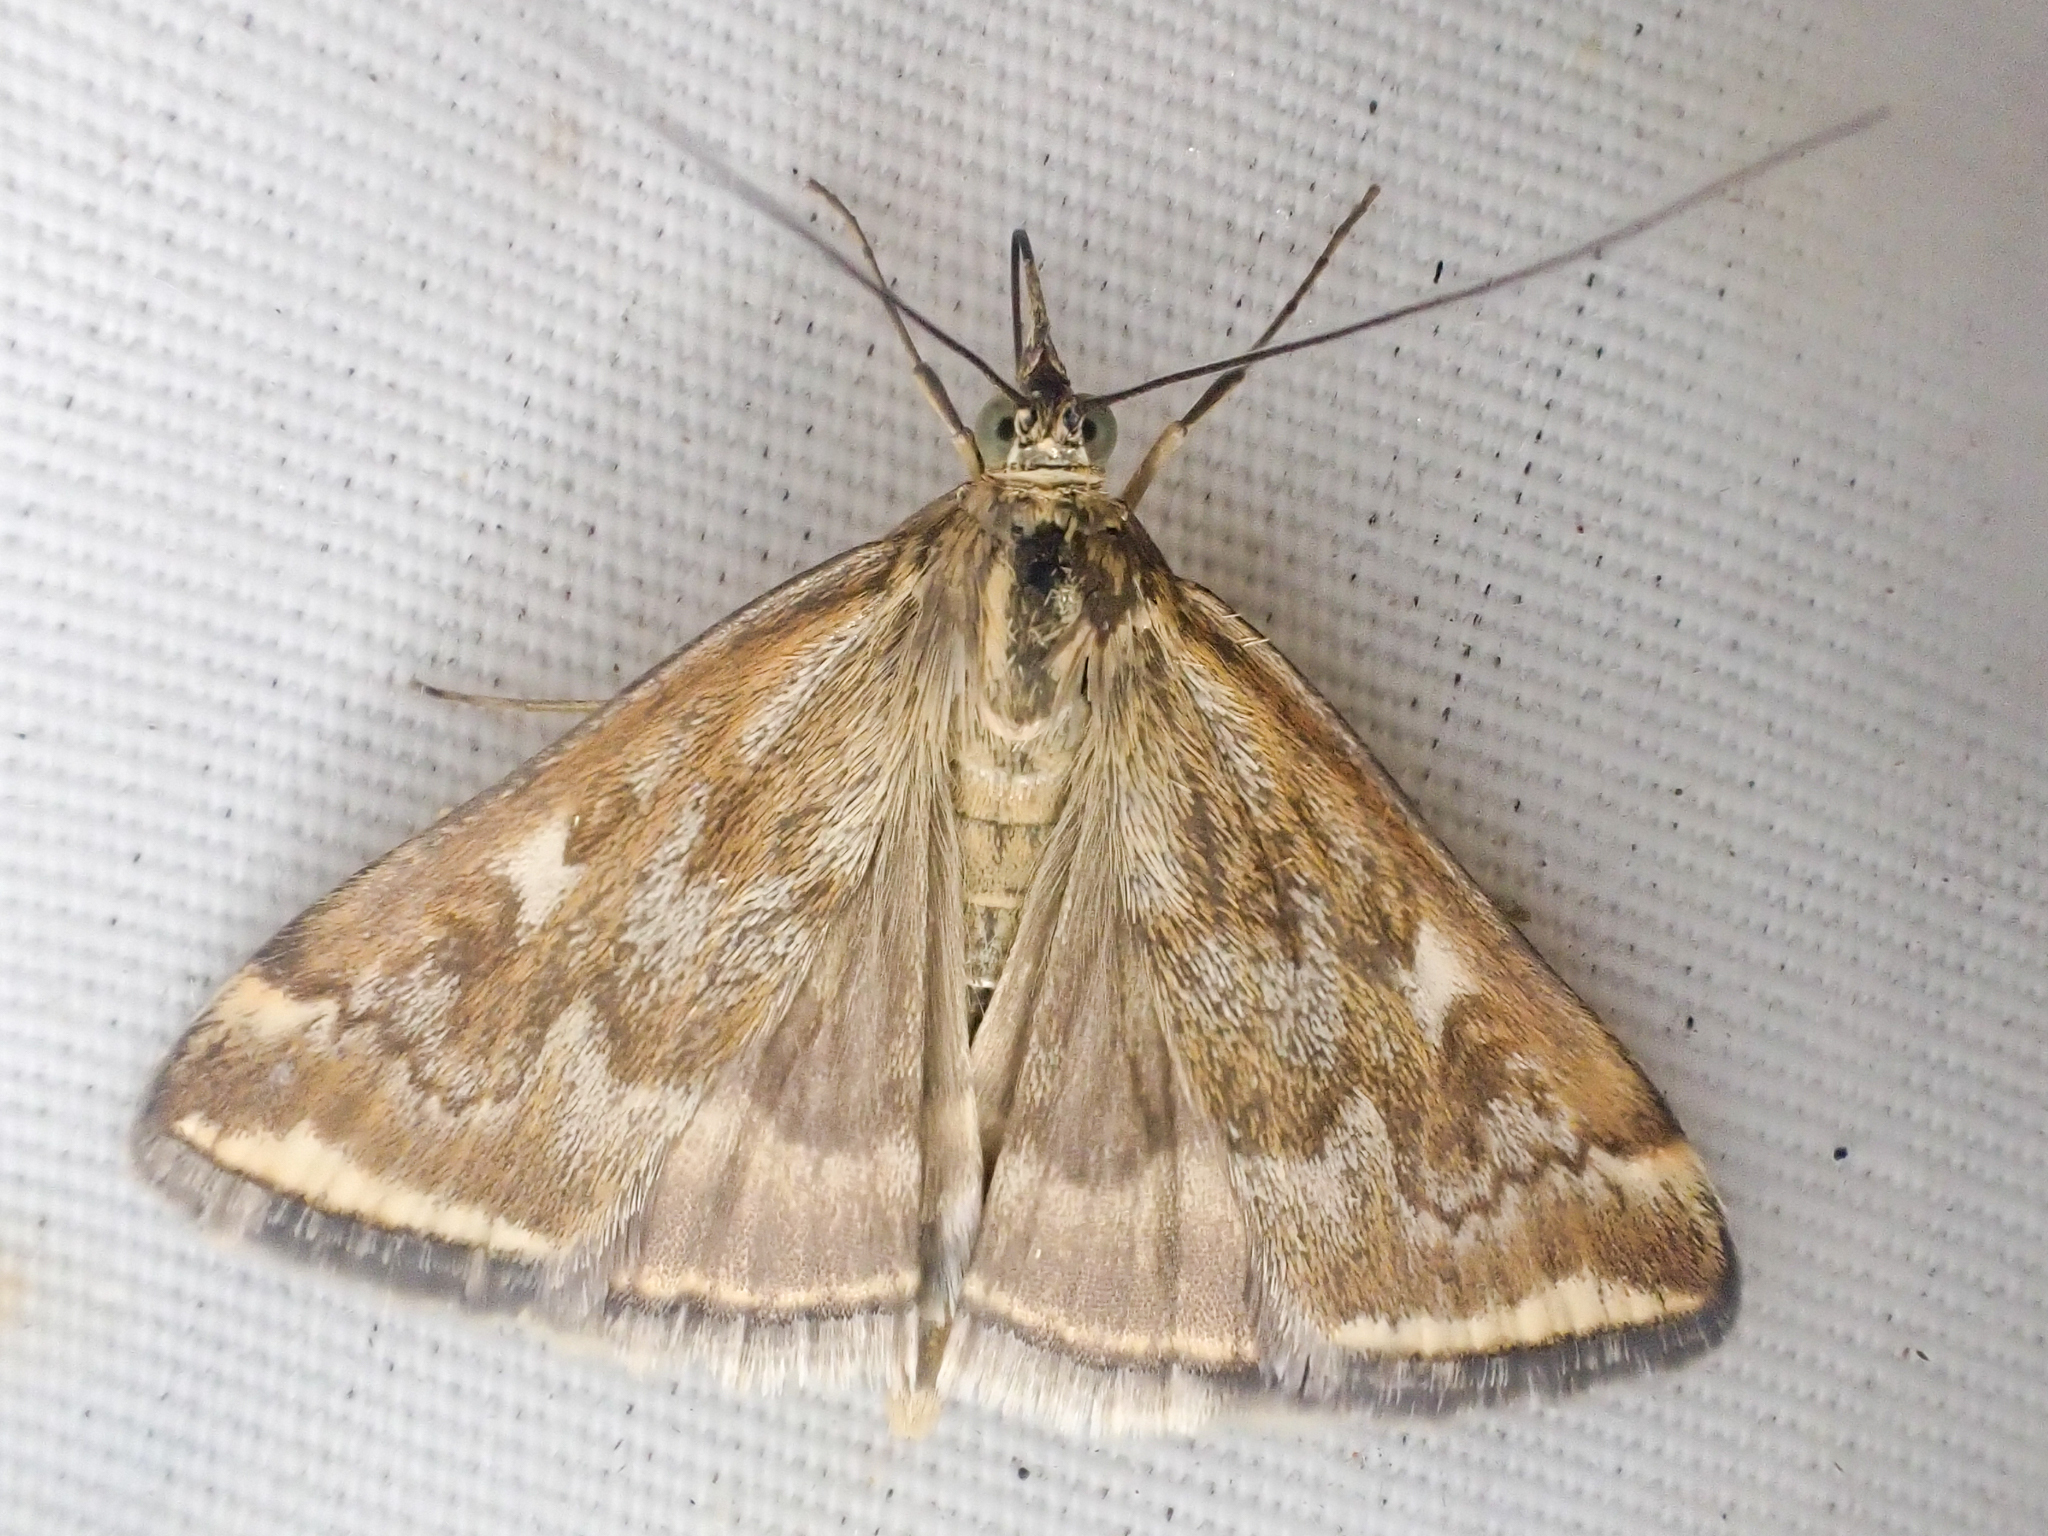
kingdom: Animalia
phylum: Arthropoda
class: Insecta
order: Lepidoptera
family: Crambidae
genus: Loxostege
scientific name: Loxostege
